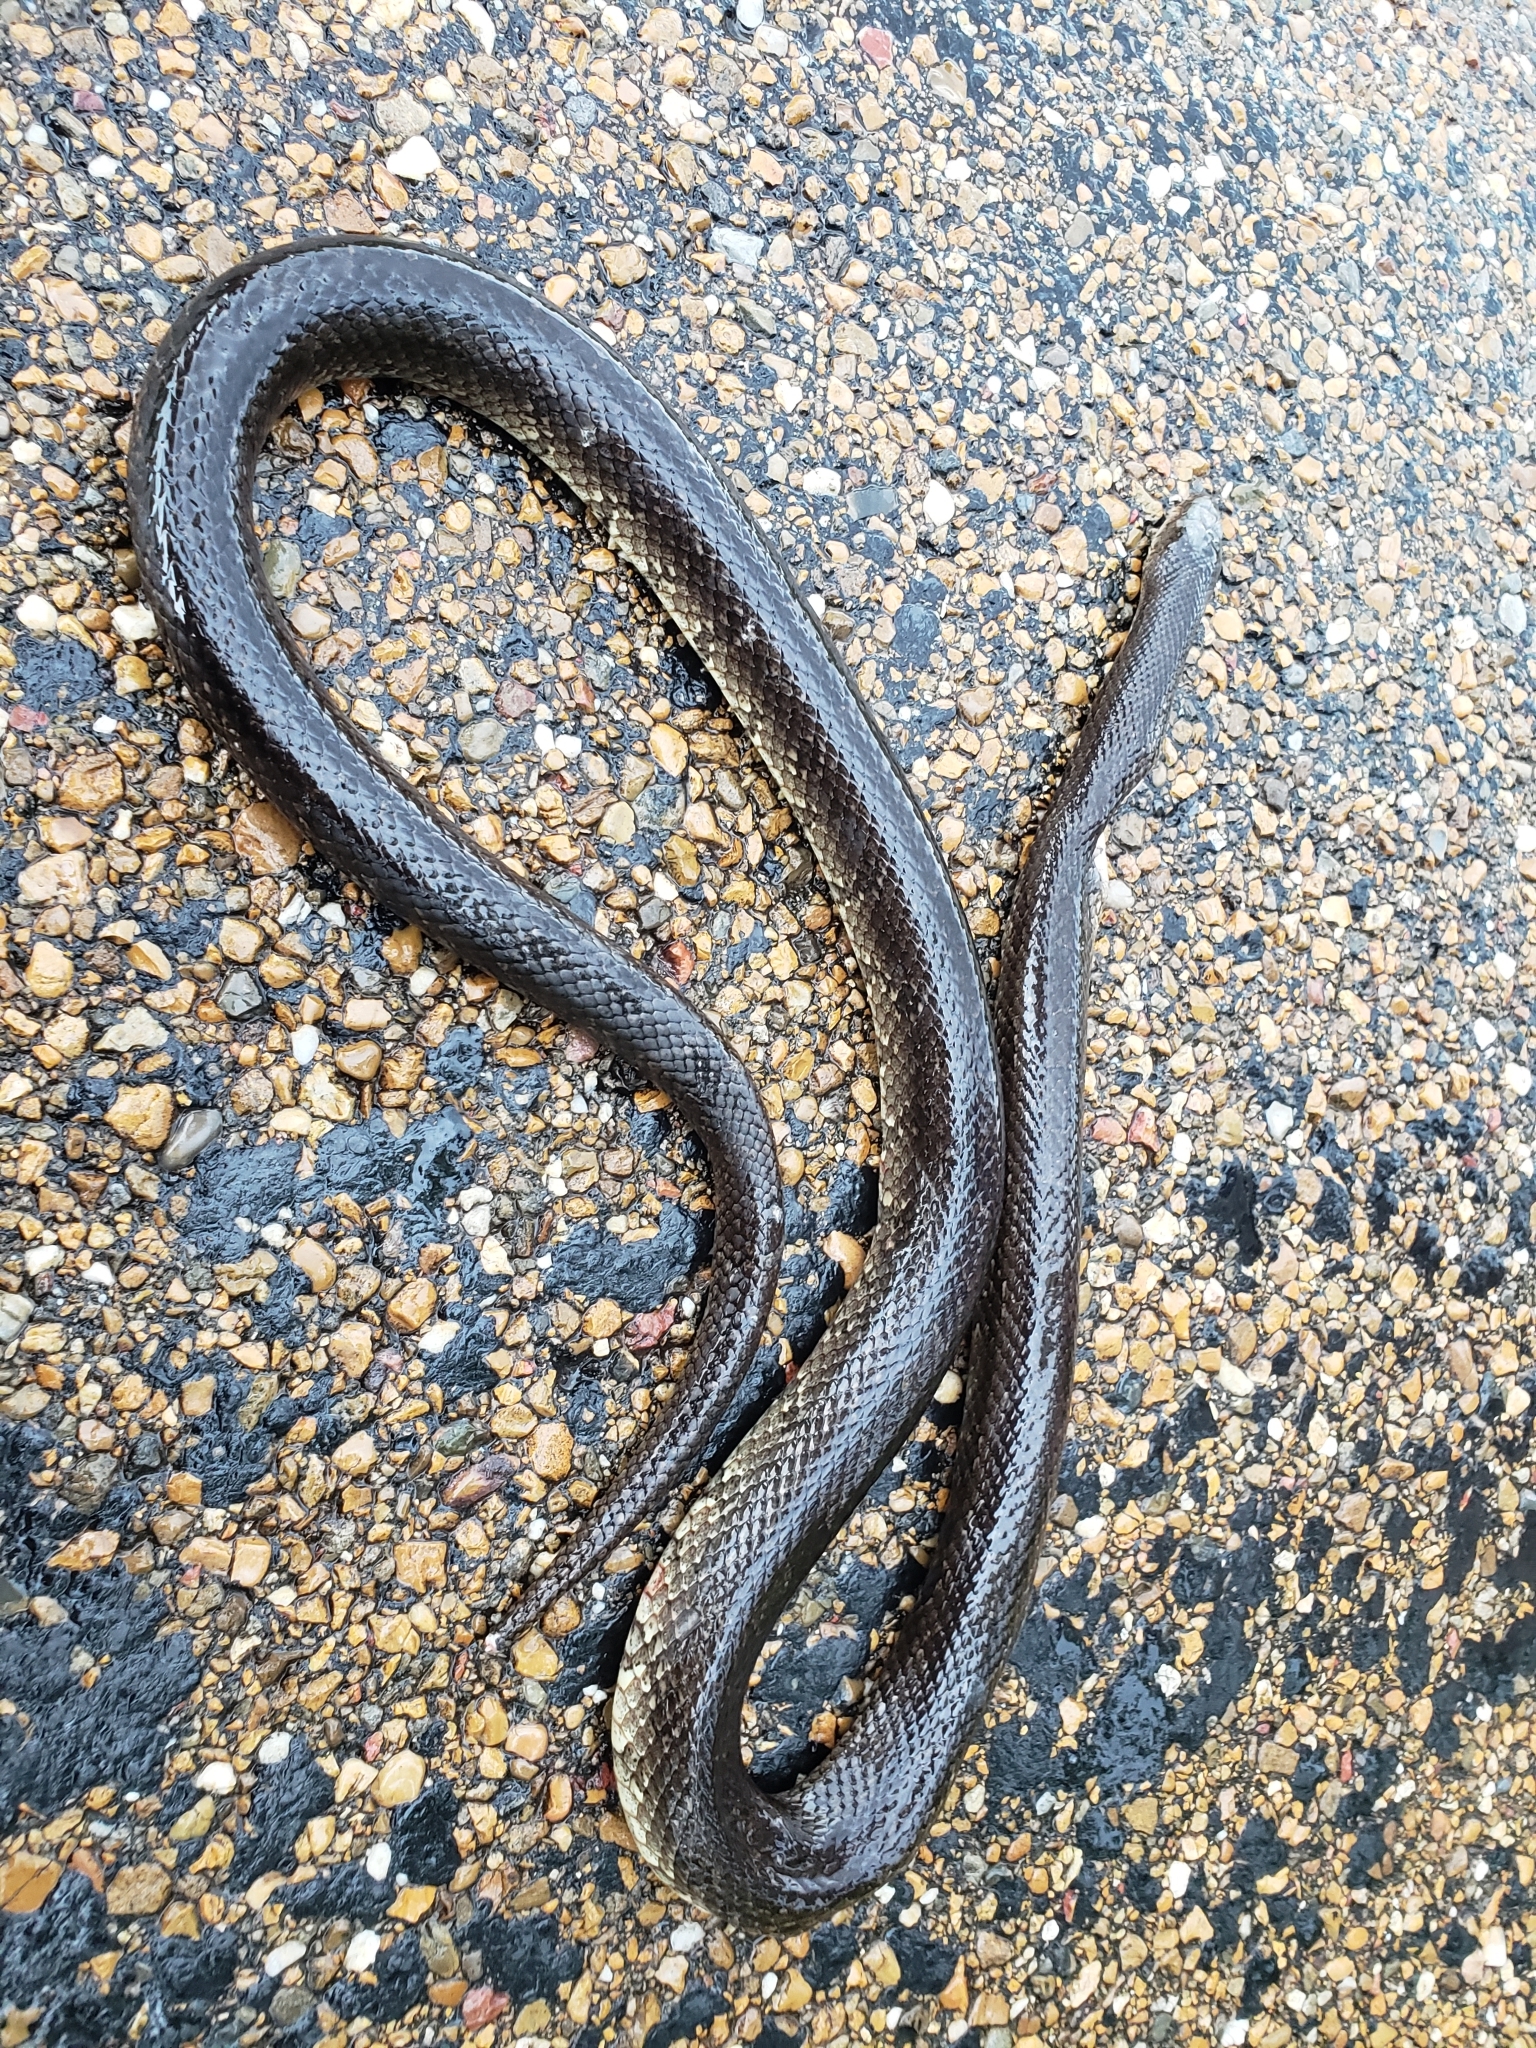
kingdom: Animalia
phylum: Chordata
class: Squamata
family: Colubridae
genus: Lampropeltis
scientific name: Lampropeltis calligaster
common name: Prairie kingsnake
